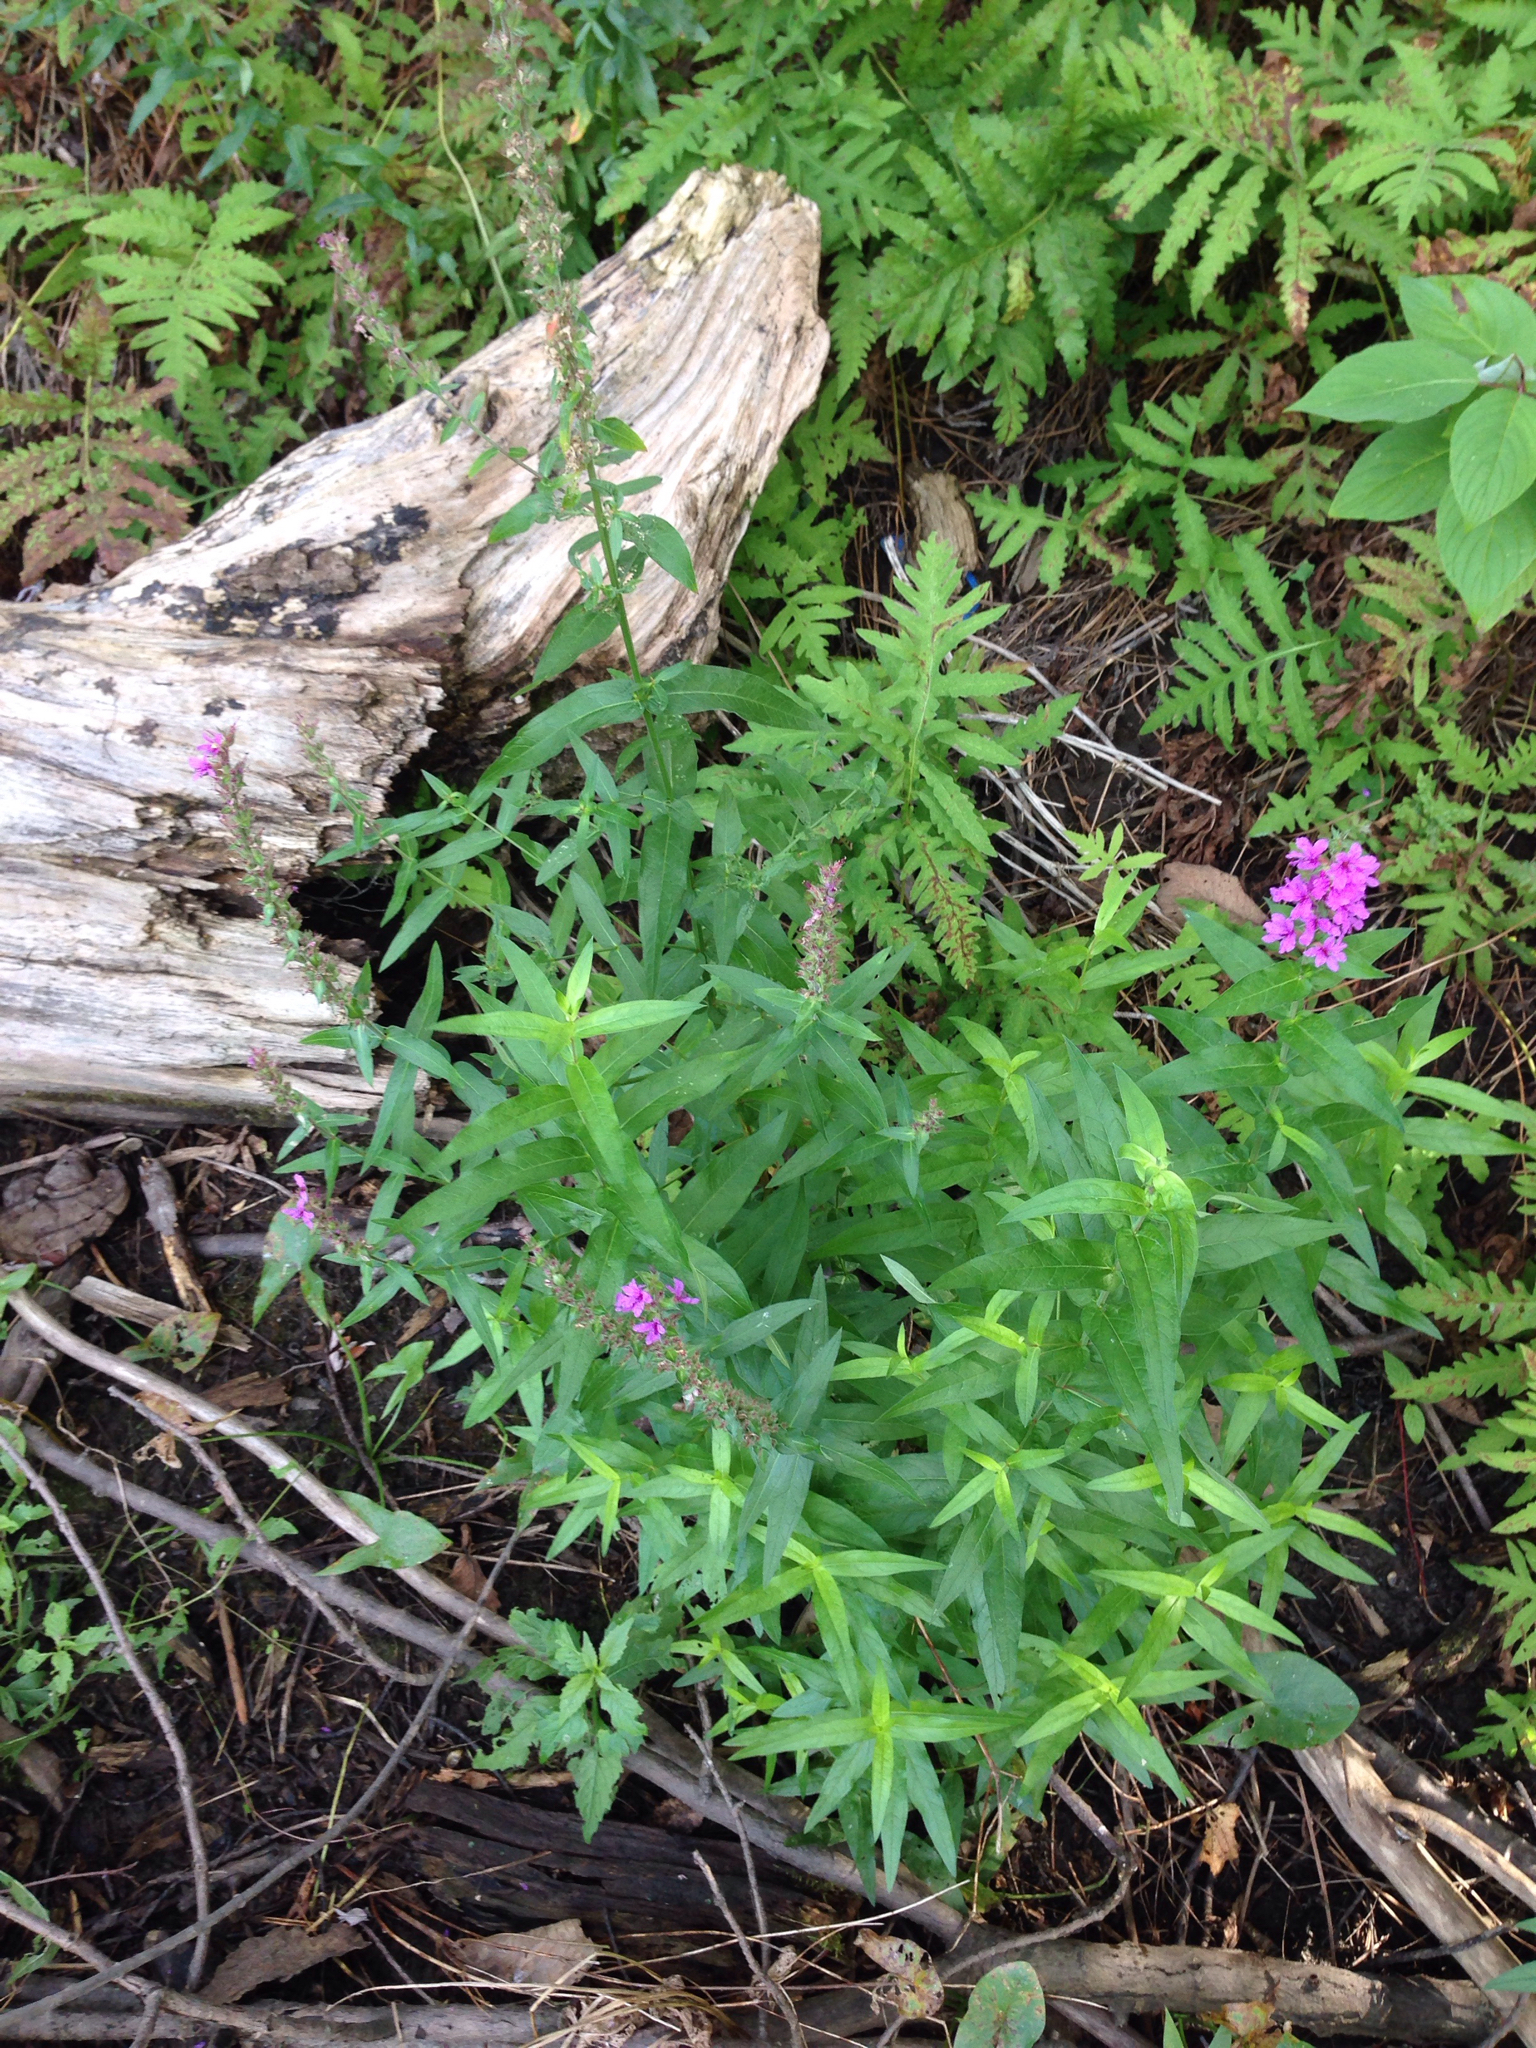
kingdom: Plantae
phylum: Tracheophyta
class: Magnoliopsida
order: Myrtales
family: Lythraceae
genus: Lythrum
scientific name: Lythrum salicaria
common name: Purple loosestrife
